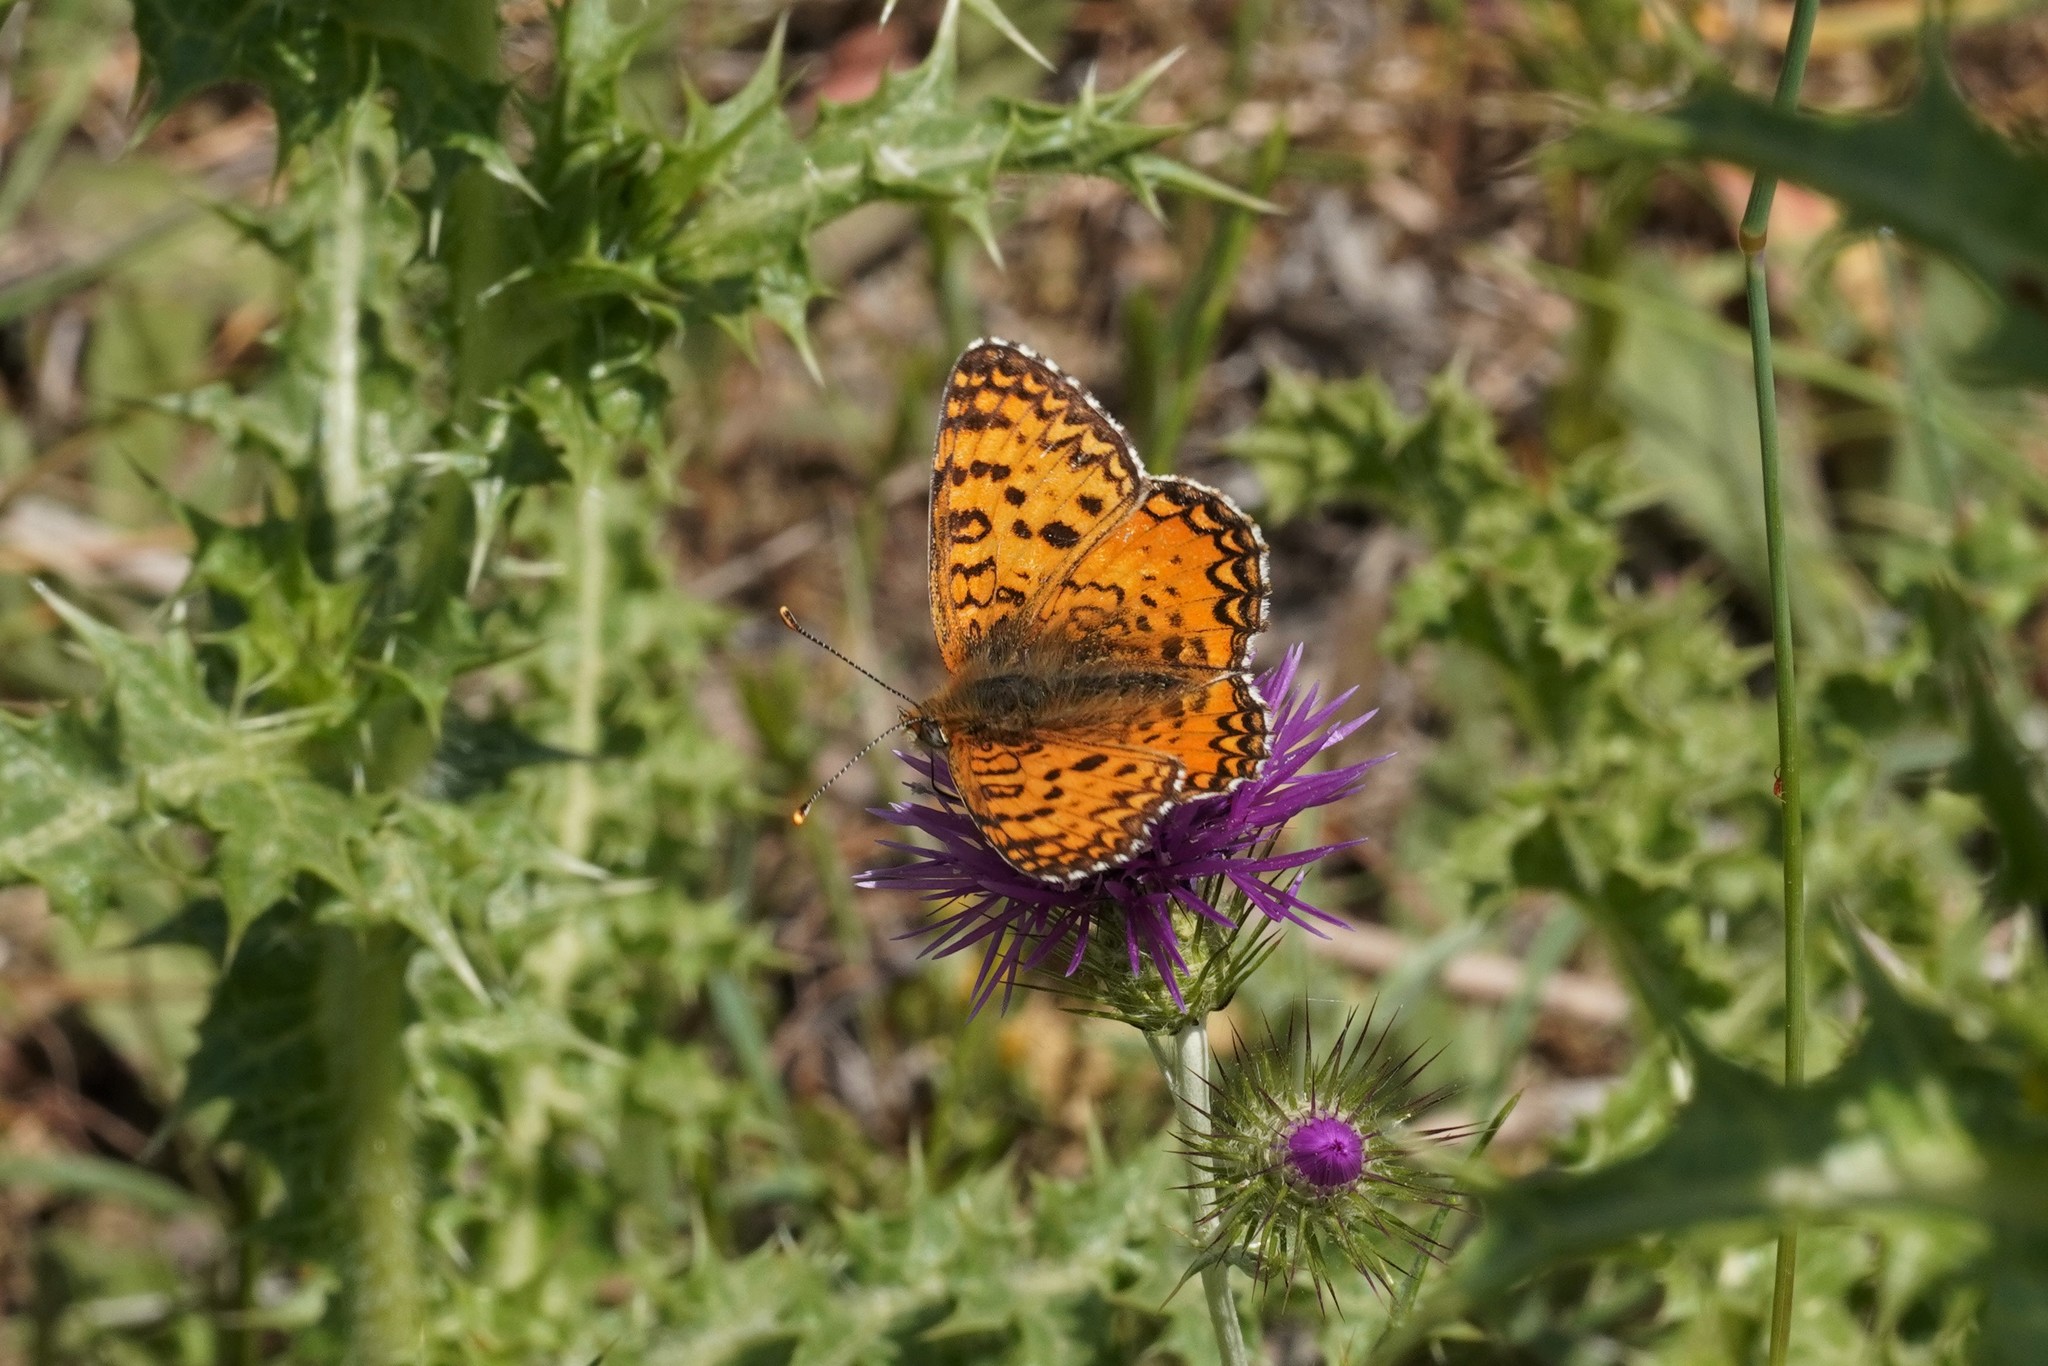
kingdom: Animalia
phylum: Arthropoda
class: Insecta
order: Lepidoptera
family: Nymphalidae
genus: Melitaea
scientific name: Melitaea aetherie
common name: Aetherie fritillary
